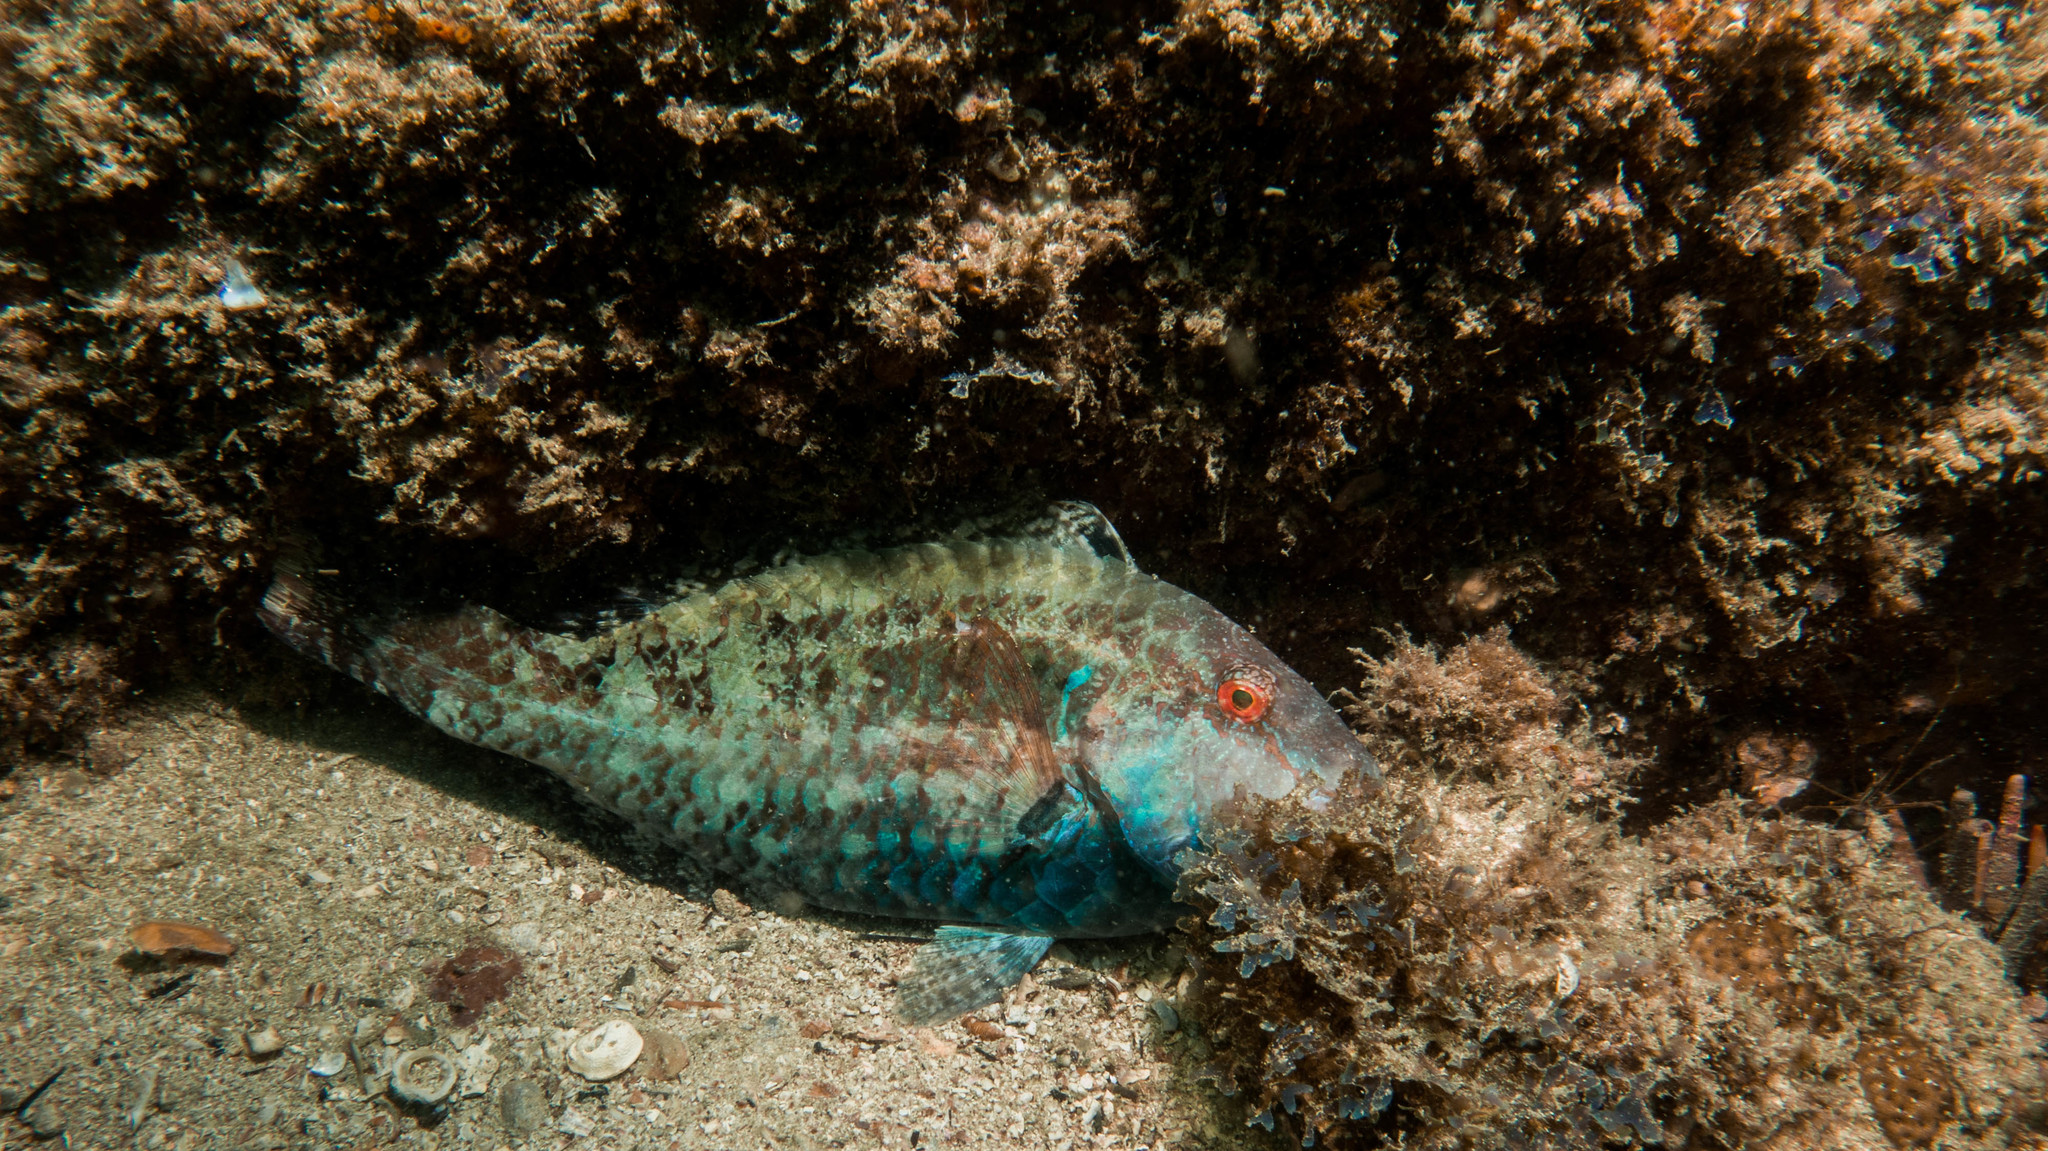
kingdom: Animalia
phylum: Chordata
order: Perciformes
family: Scaridae
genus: Sparisoma
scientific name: Sparisoma tuiupiranga
